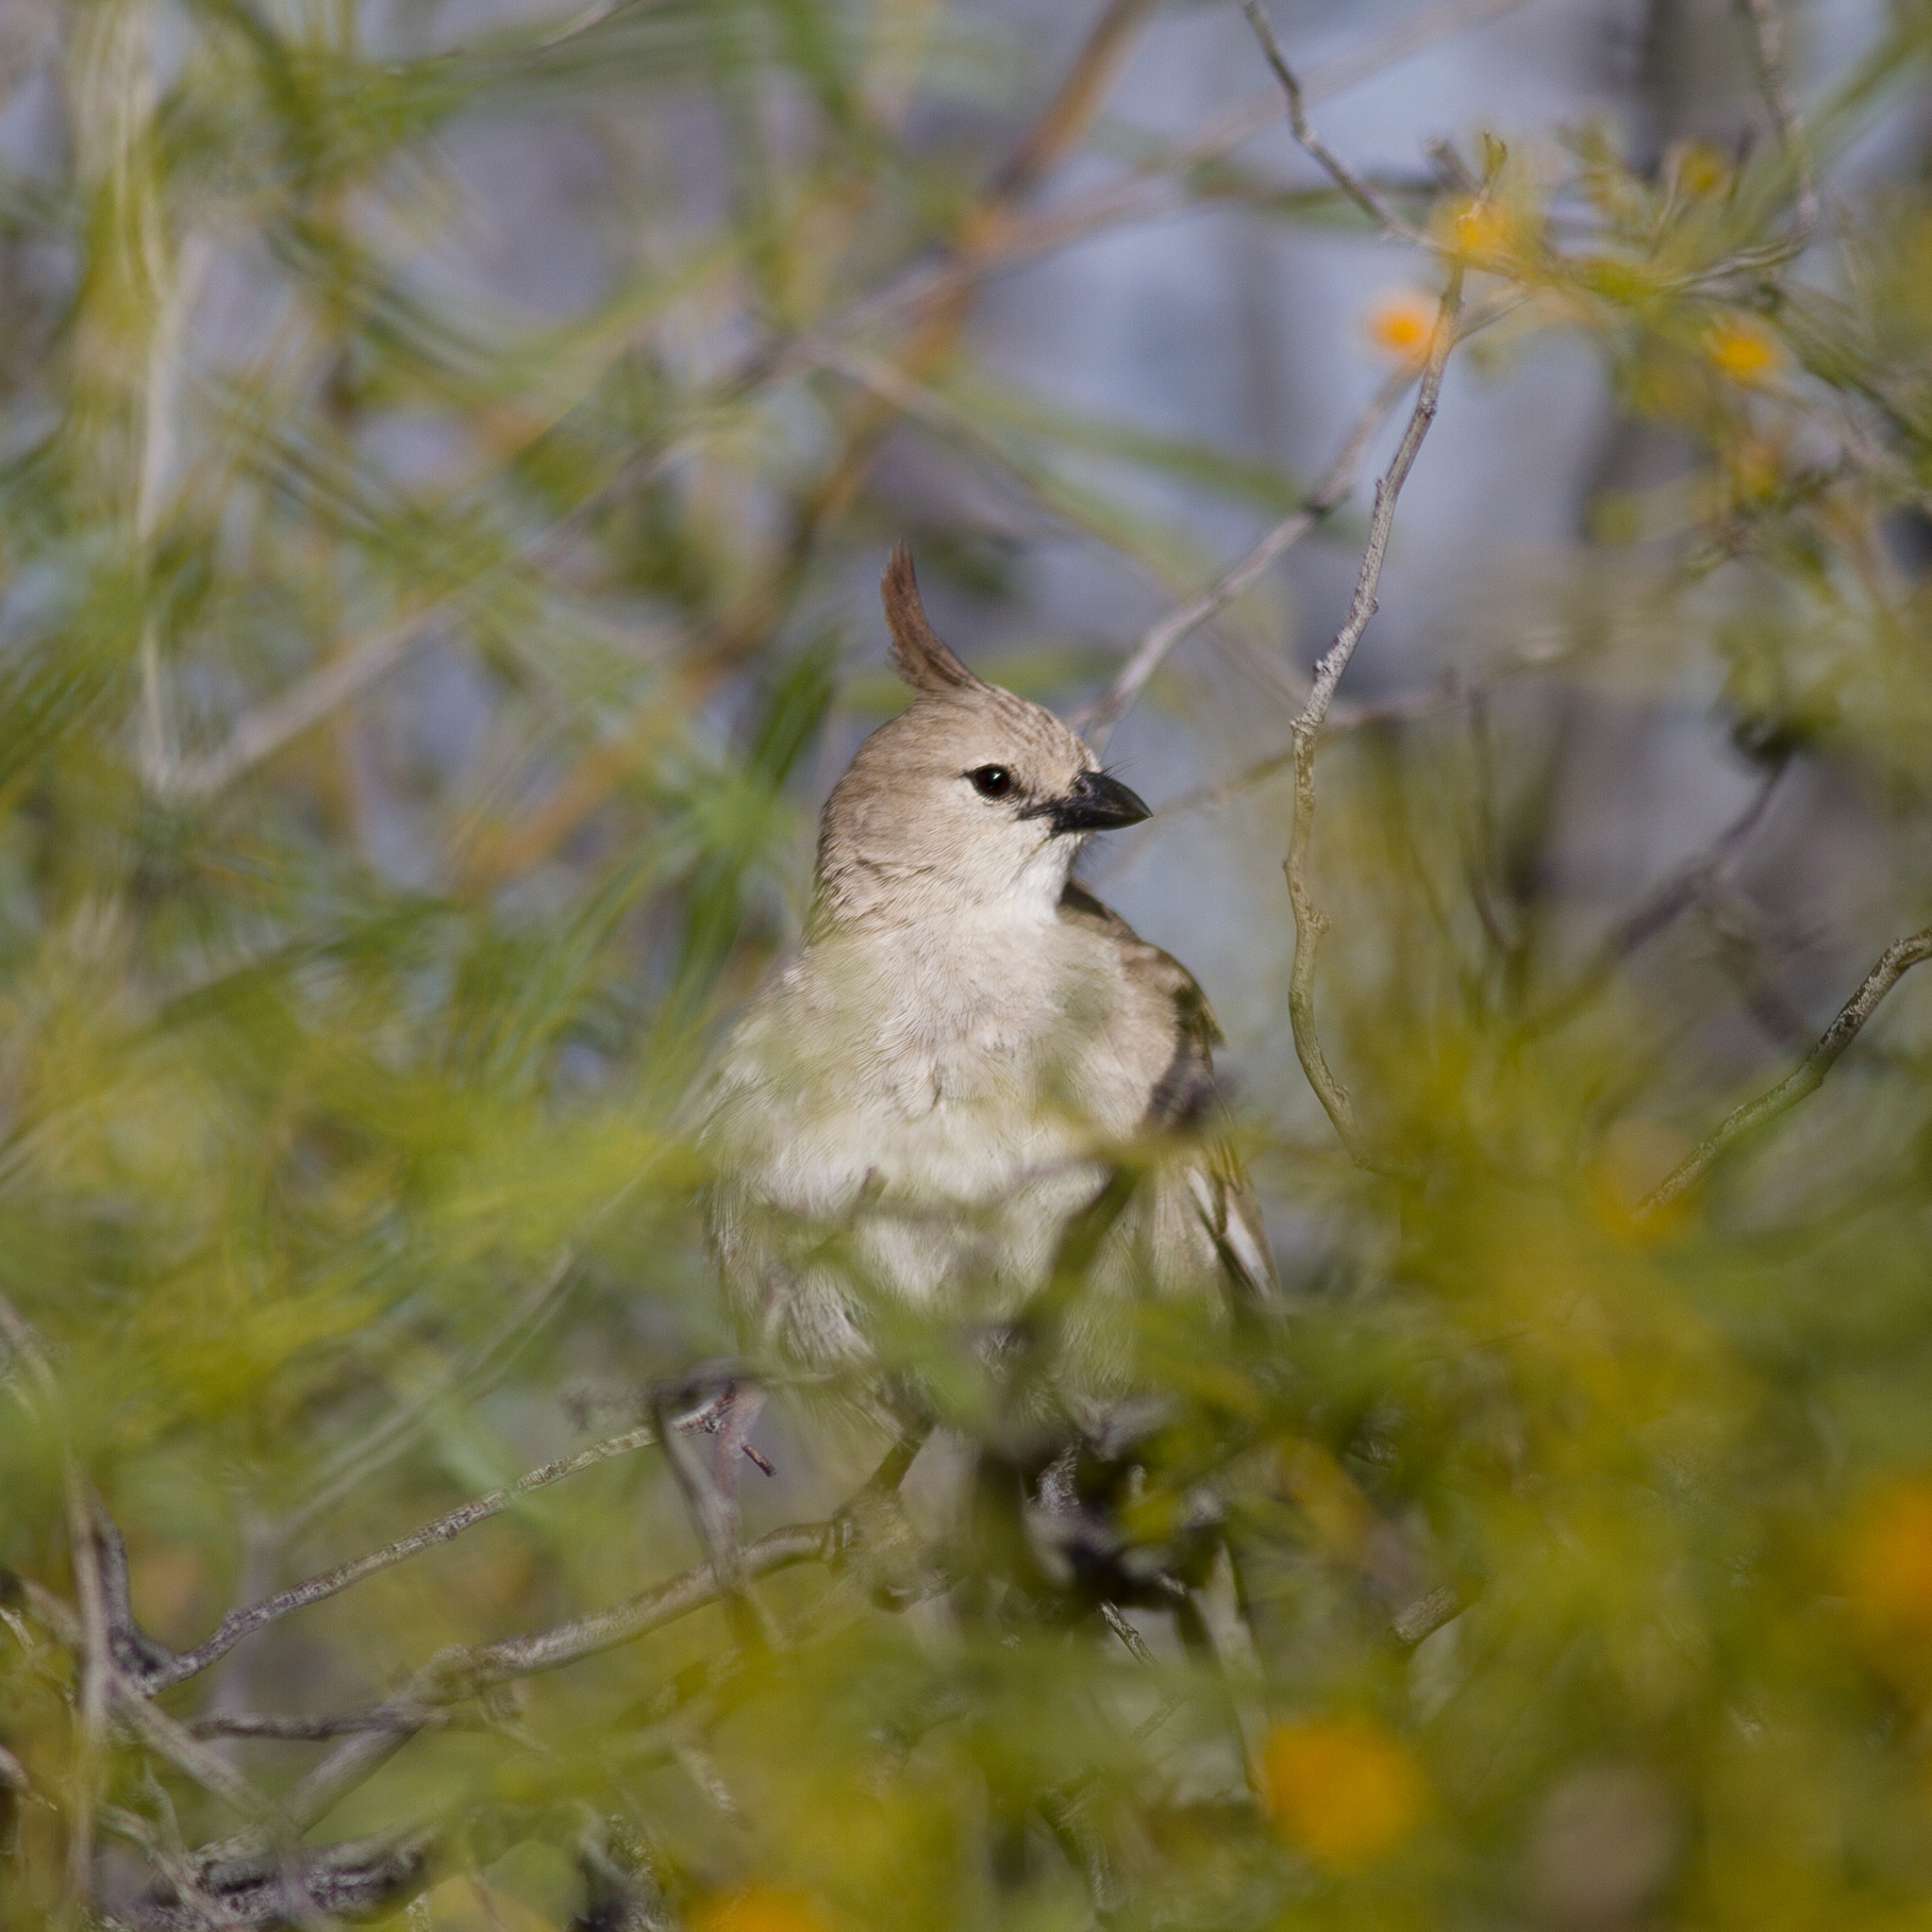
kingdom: Animalia
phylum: Chordata
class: Aves
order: Passeriformes
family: Psophodidae
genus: Psophodes
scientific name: Psophodes cristatus
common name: Chirruping wedgebill
